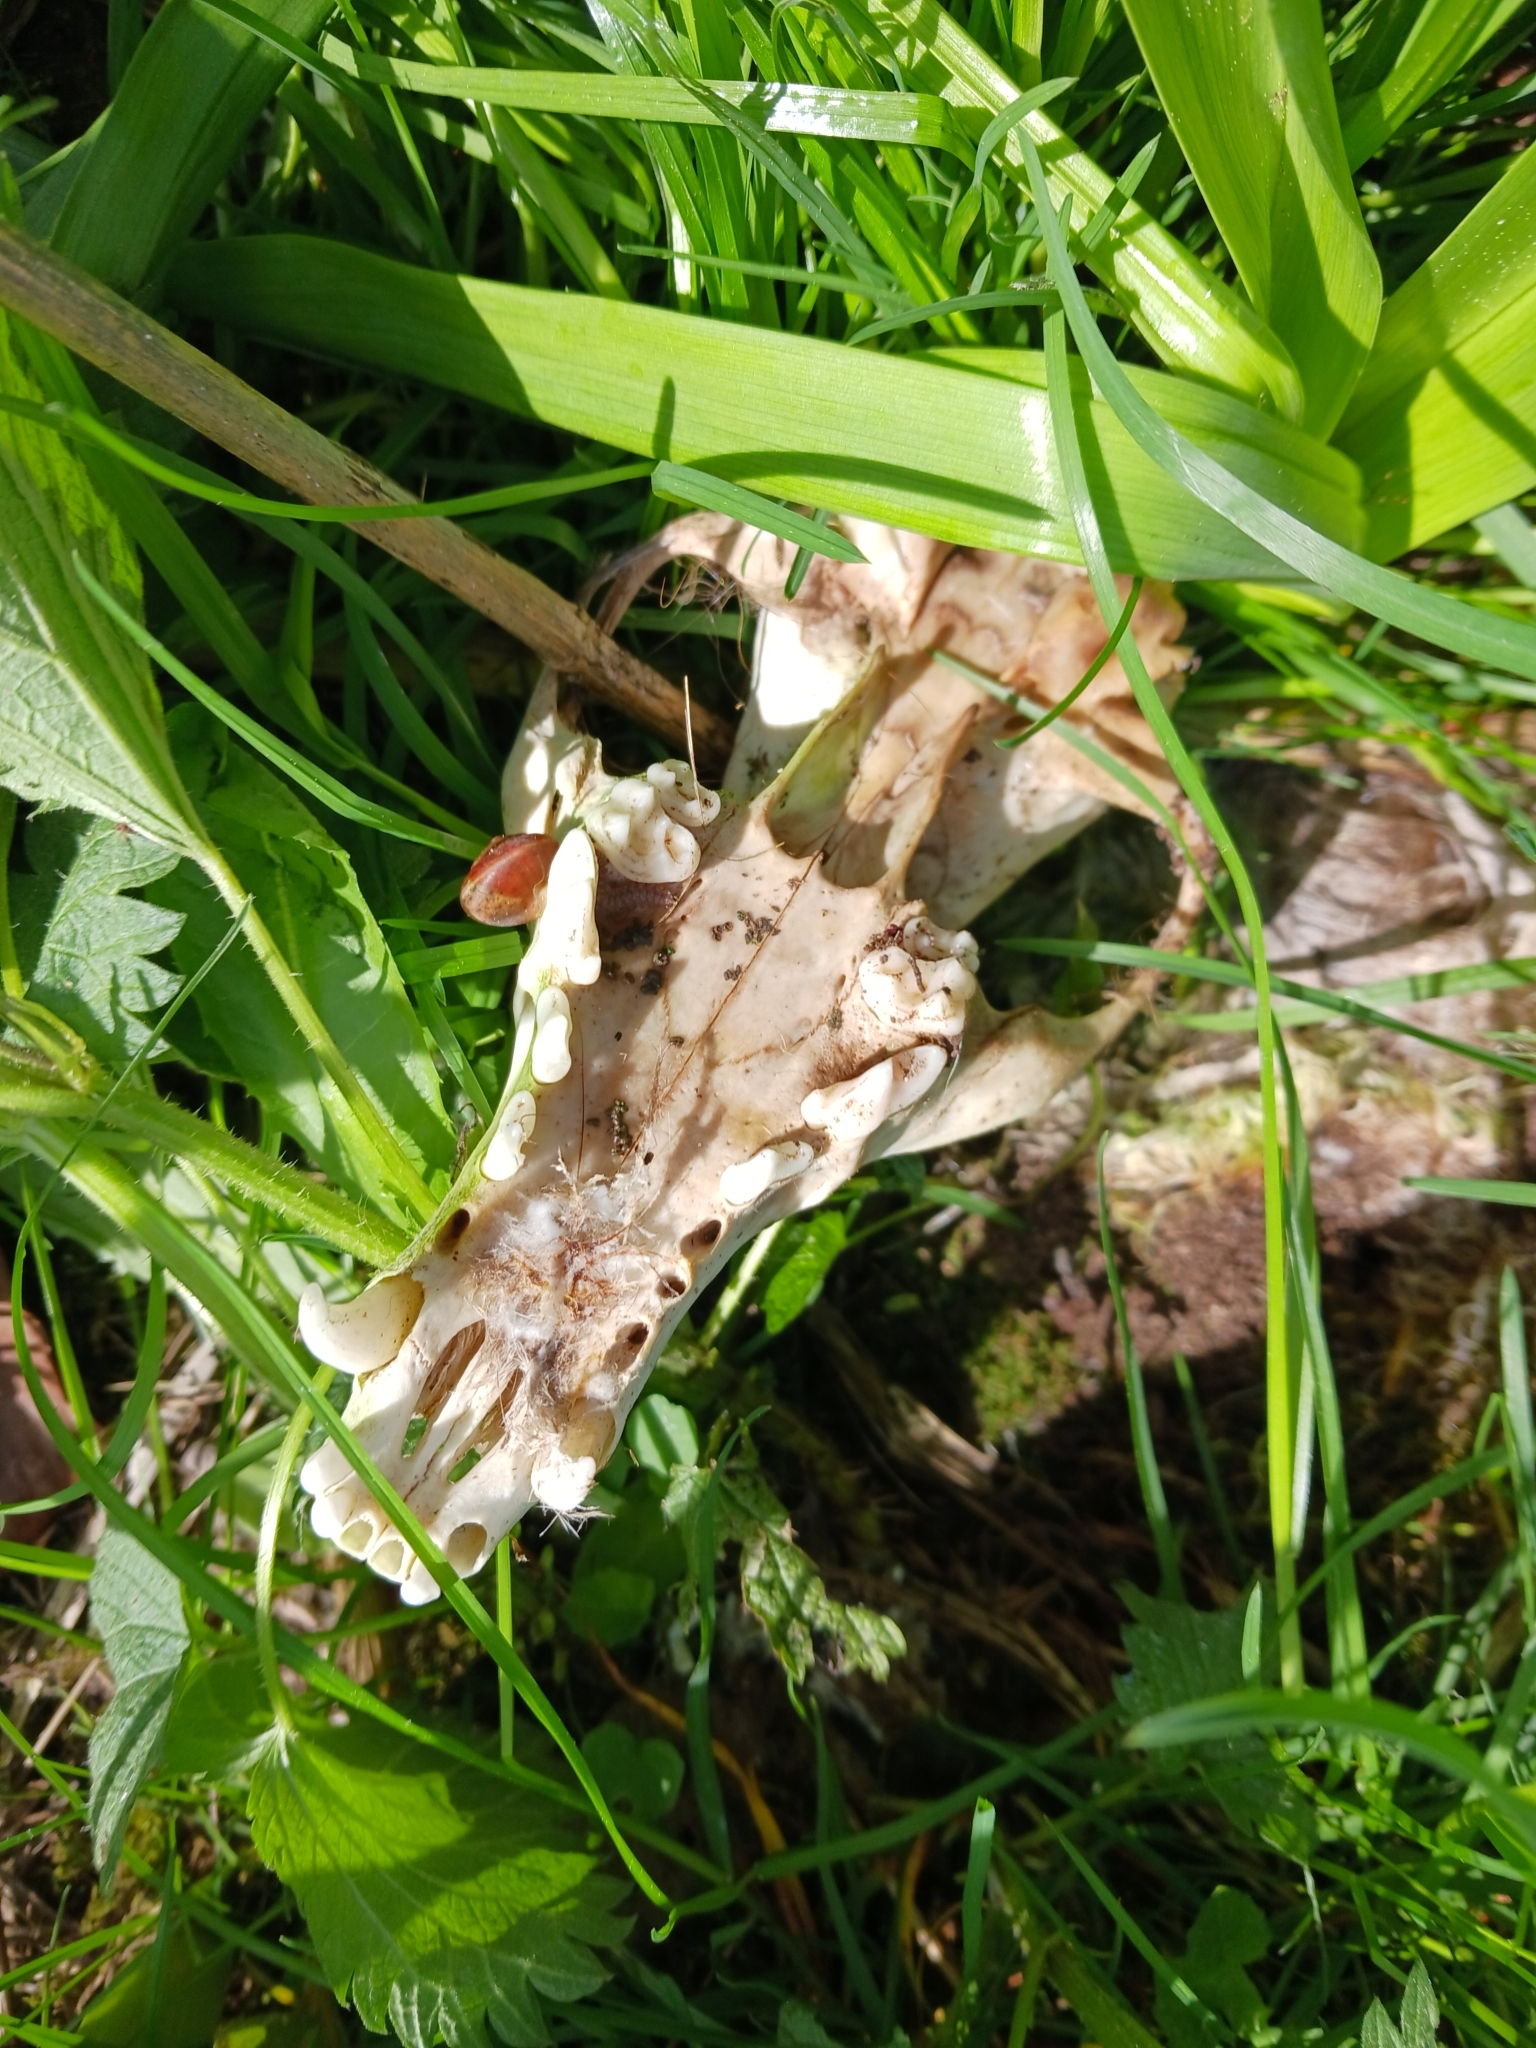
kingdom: Animalia
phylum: Chordata
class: Mammalia
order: Carnivora
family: Canidae
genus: Vulpes
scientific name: Vulpes vulpes
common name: Red fox
